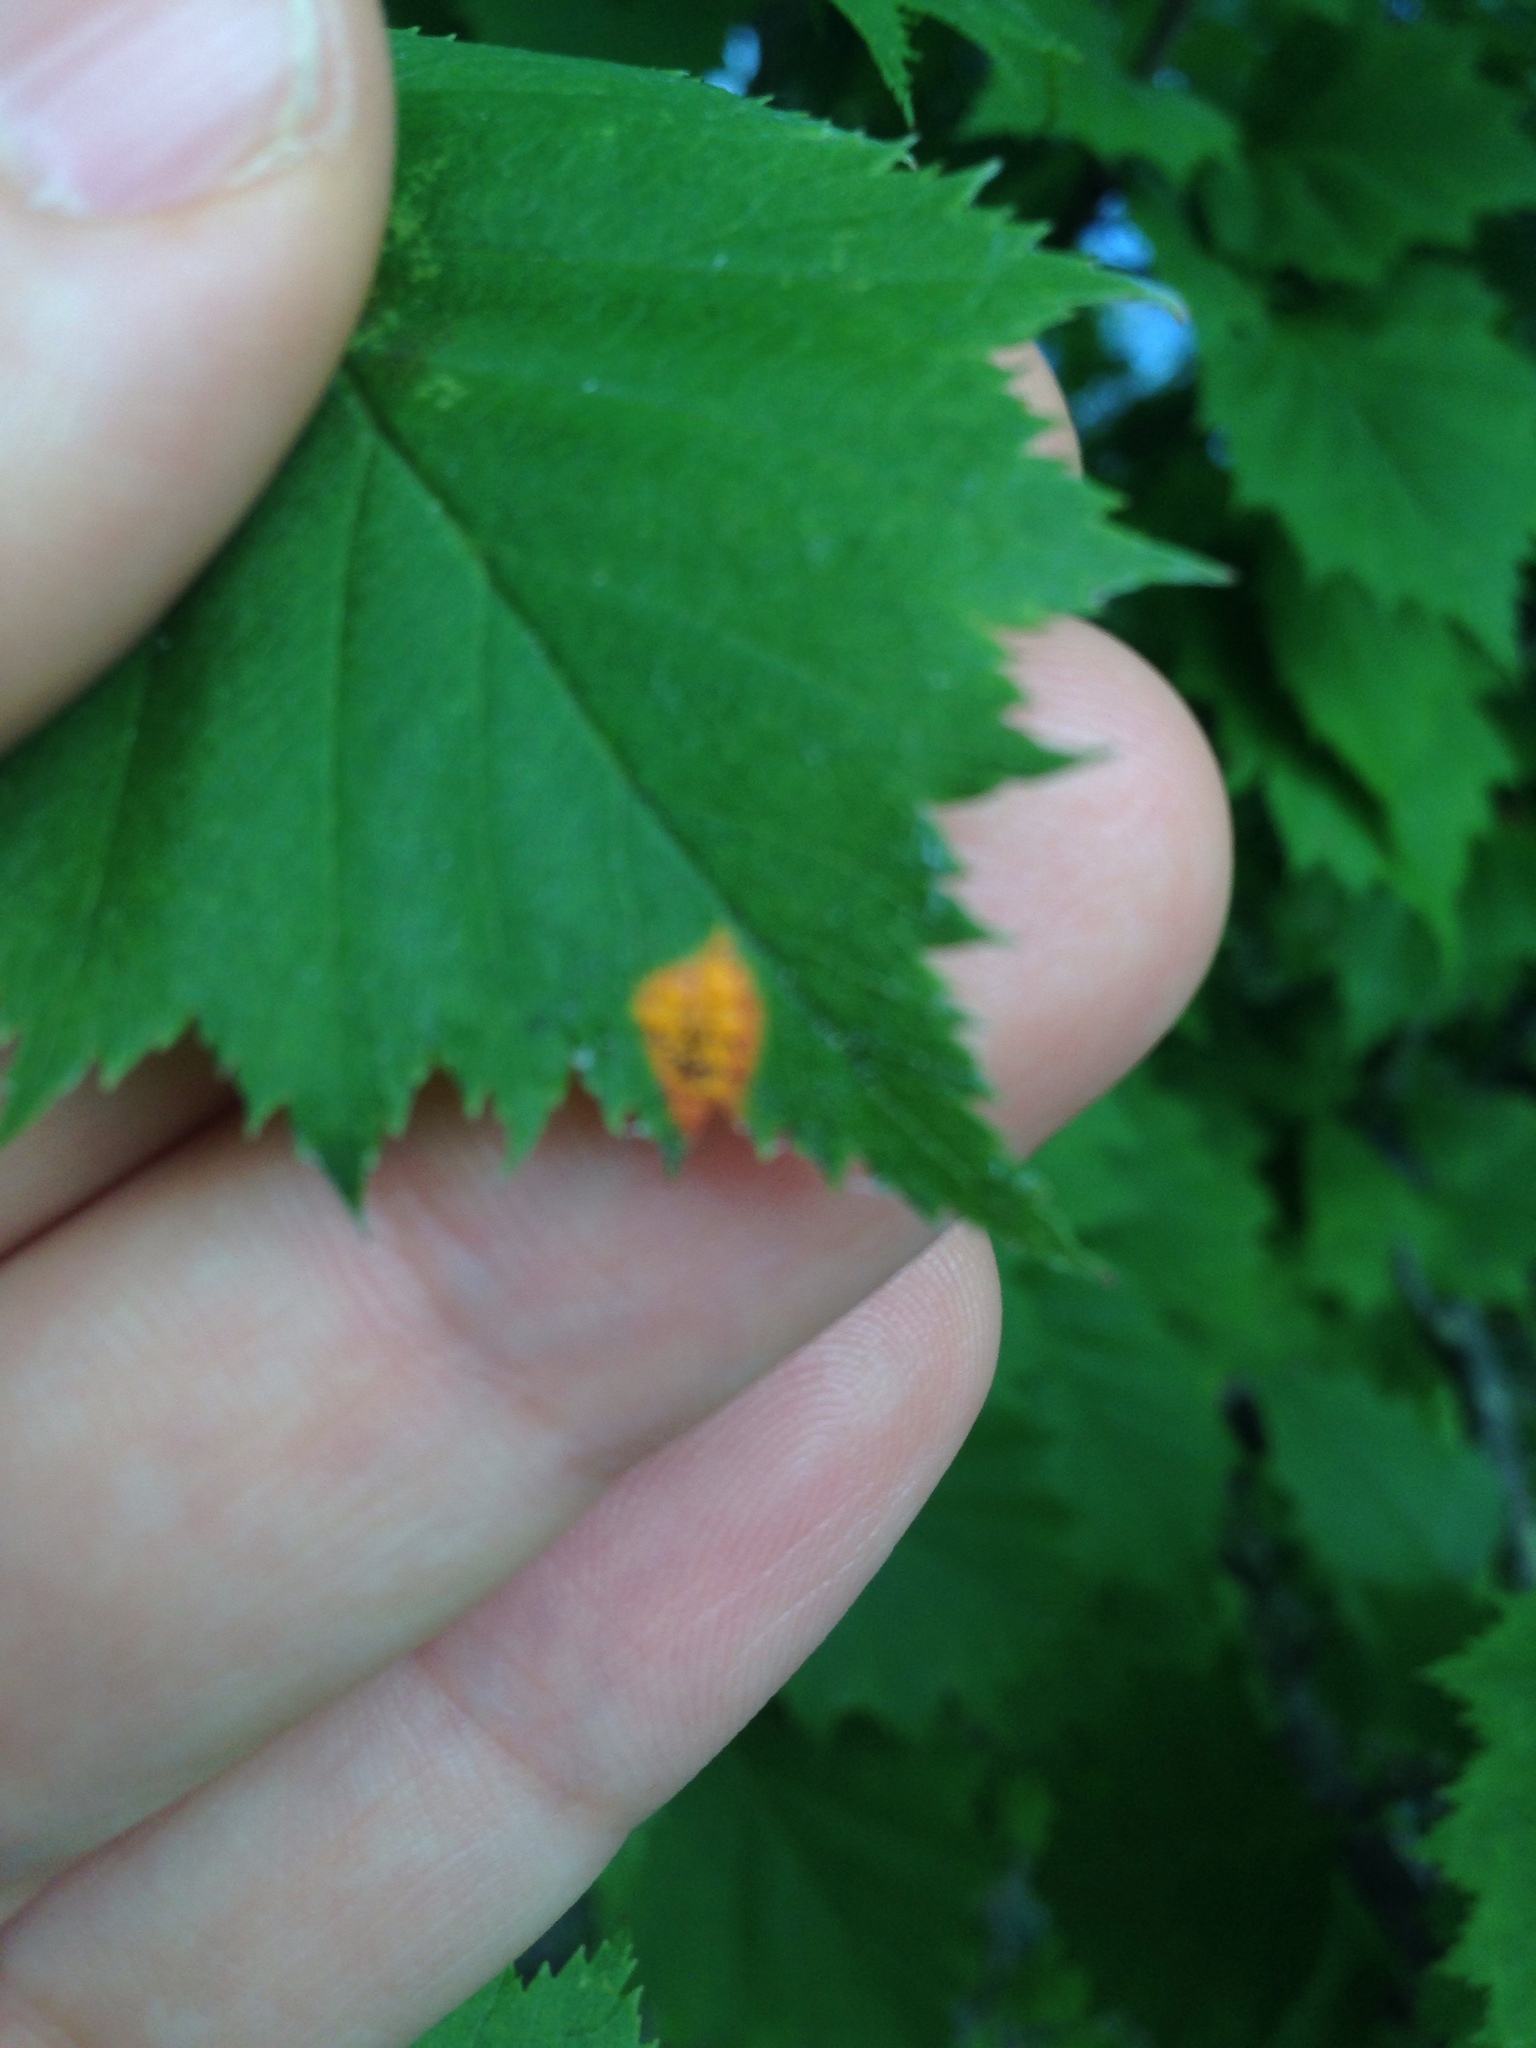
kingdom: Fungi
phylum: Basidiomycota
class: Pucciniomycetes
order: Pucciniales
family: Gymnosporangiaceae
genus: Gymnosporangium
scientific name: Gymnosporangium globosum
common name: Juniper-hawthorn rust
